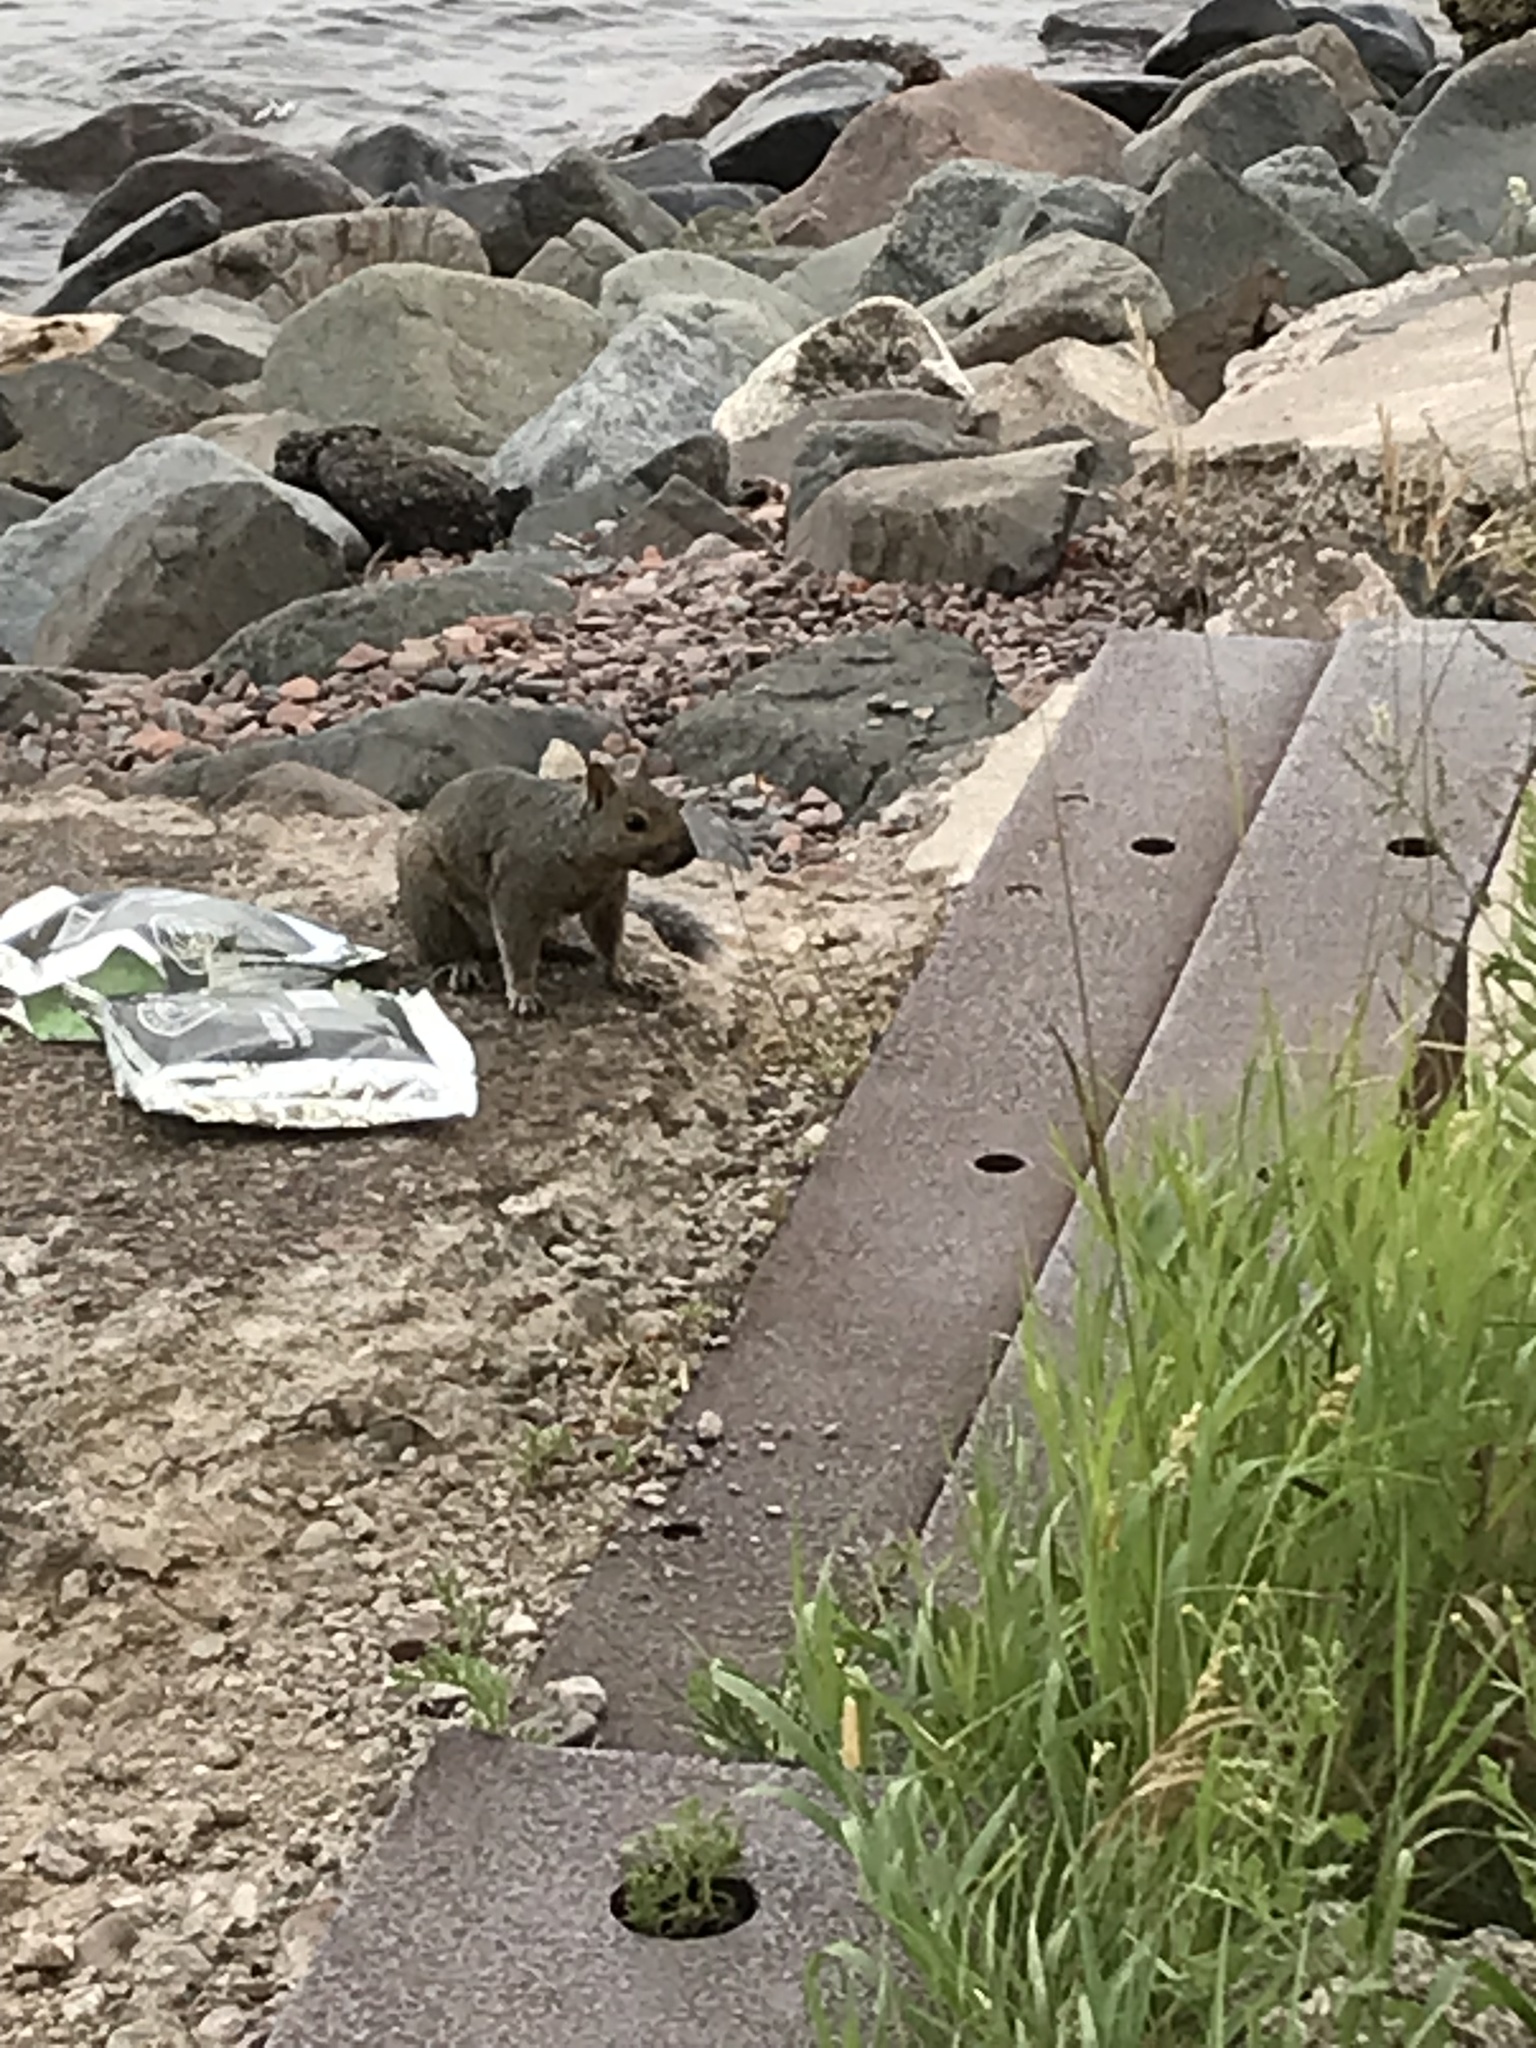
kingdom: Animalia
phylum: Chordata
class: Mammalia
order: Rodentia
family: Sciuridae
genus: Sciurus
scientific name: Sciurus carolinensis
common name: Eastern gray squirrel
